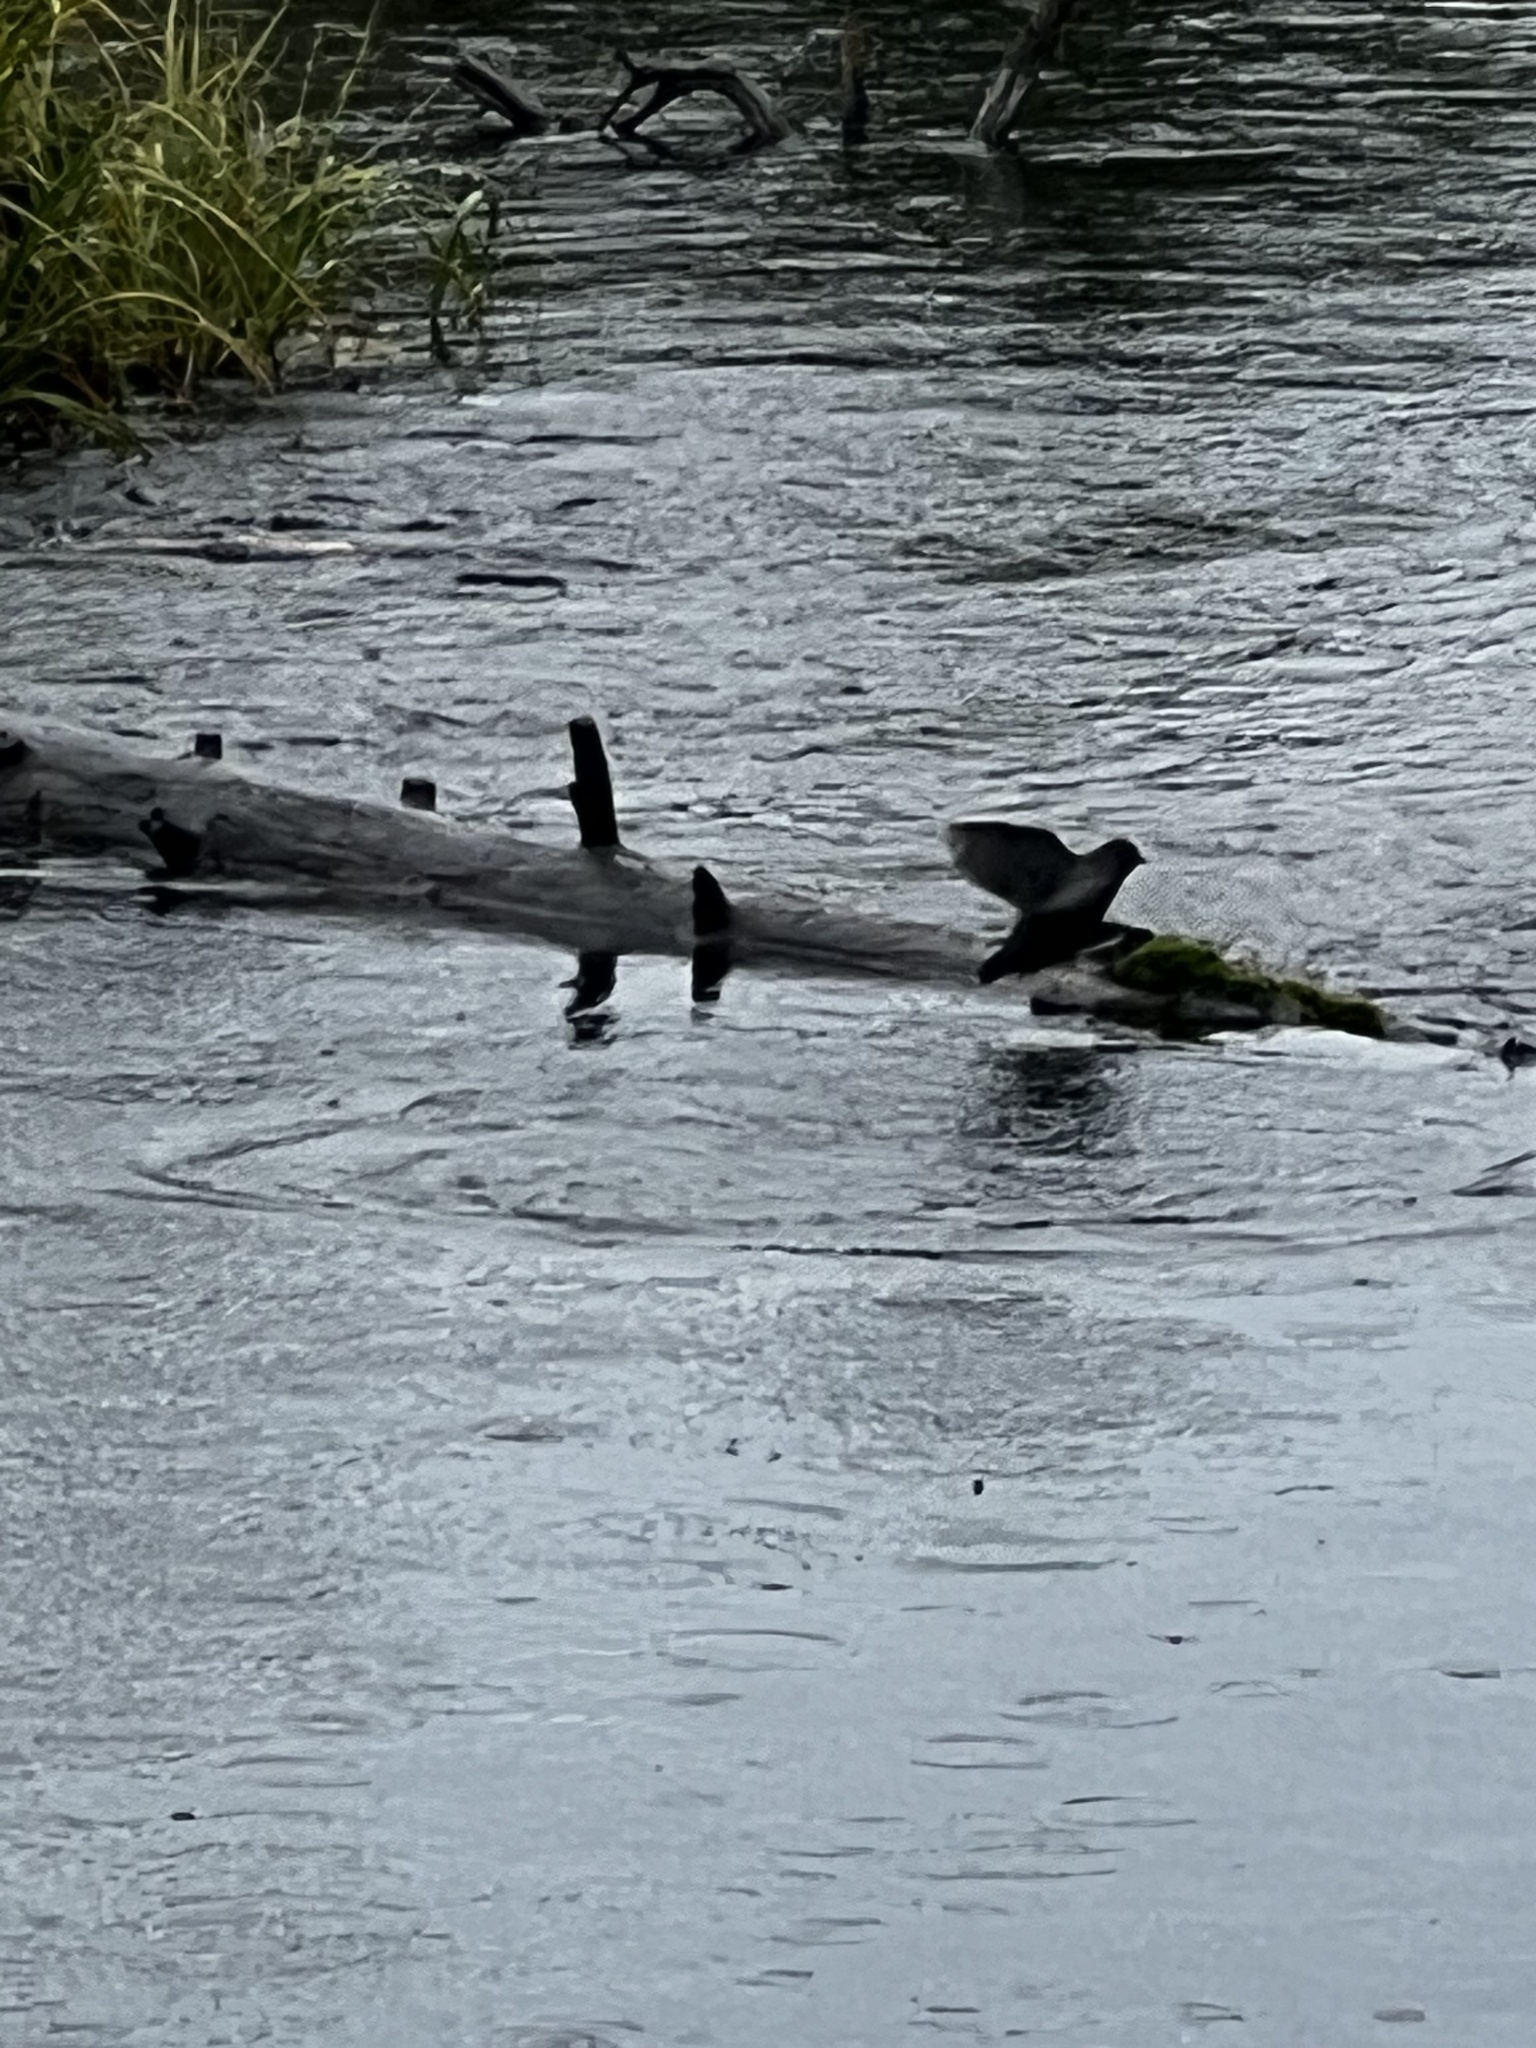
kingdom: Animalia
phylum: Chordata
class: Aves
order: Passeriformes
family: Cinclidae
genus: Cinclus
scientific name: Cinclus mexicanus
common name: American dipper
